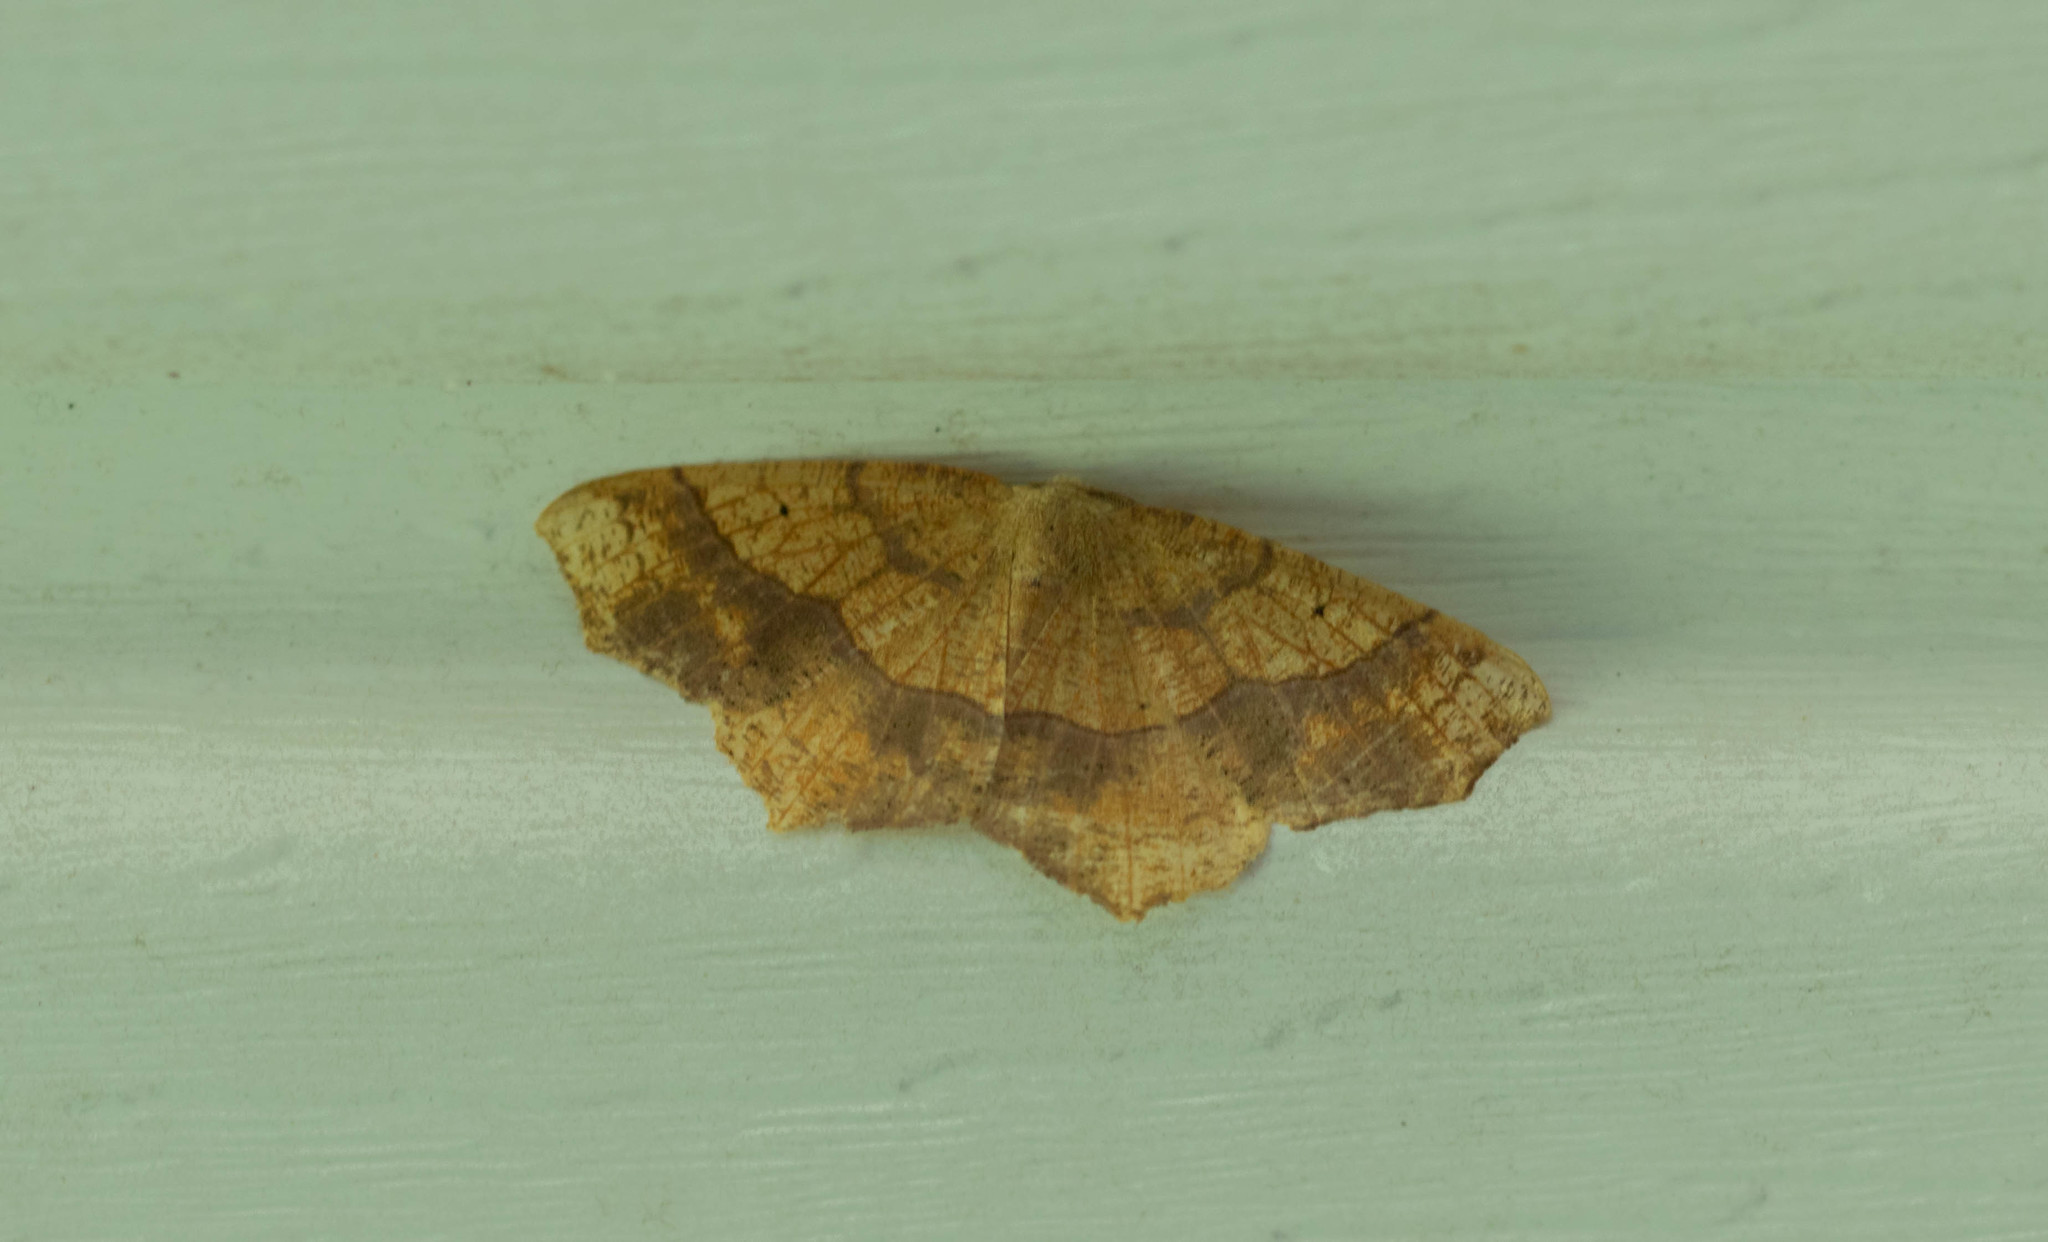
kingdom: Animalia
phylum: Arthropoda
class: Insecta
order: Lepidoptera
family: Geometridae
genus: Besma
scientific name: Besma quercivoraria
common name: Oak besma
